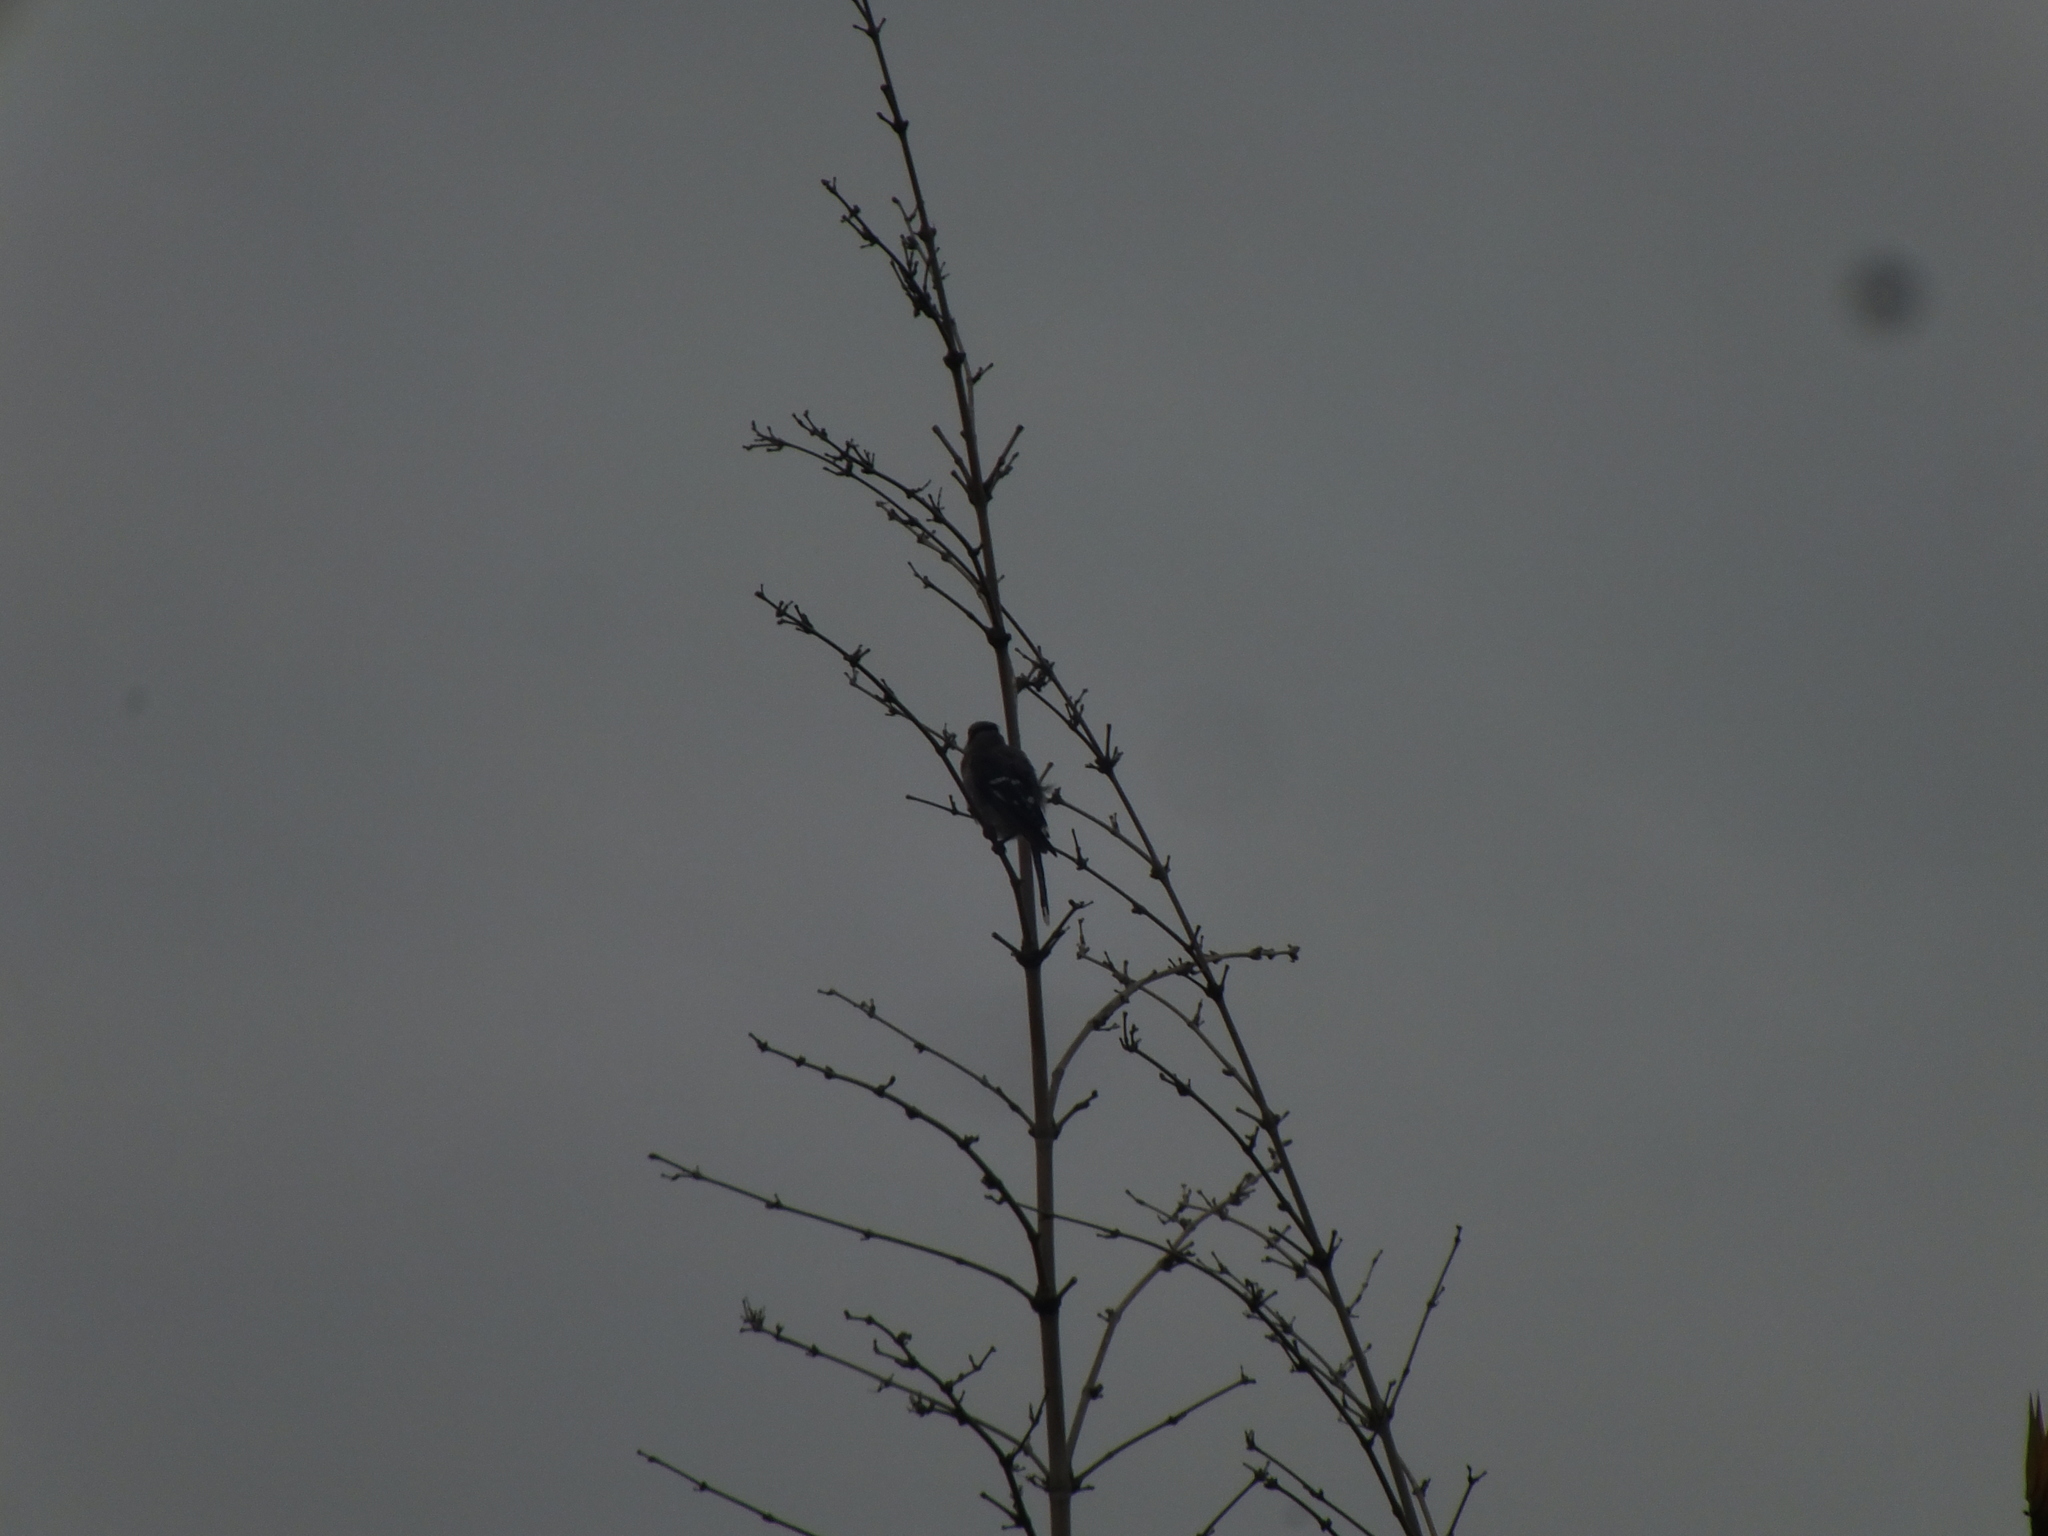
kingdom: Animalia
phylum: Chordata
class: Aves
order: Passeriformes
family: Corvidae
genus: Cyanocitta
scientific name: Cyanocitta cristata
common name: Blue jay
